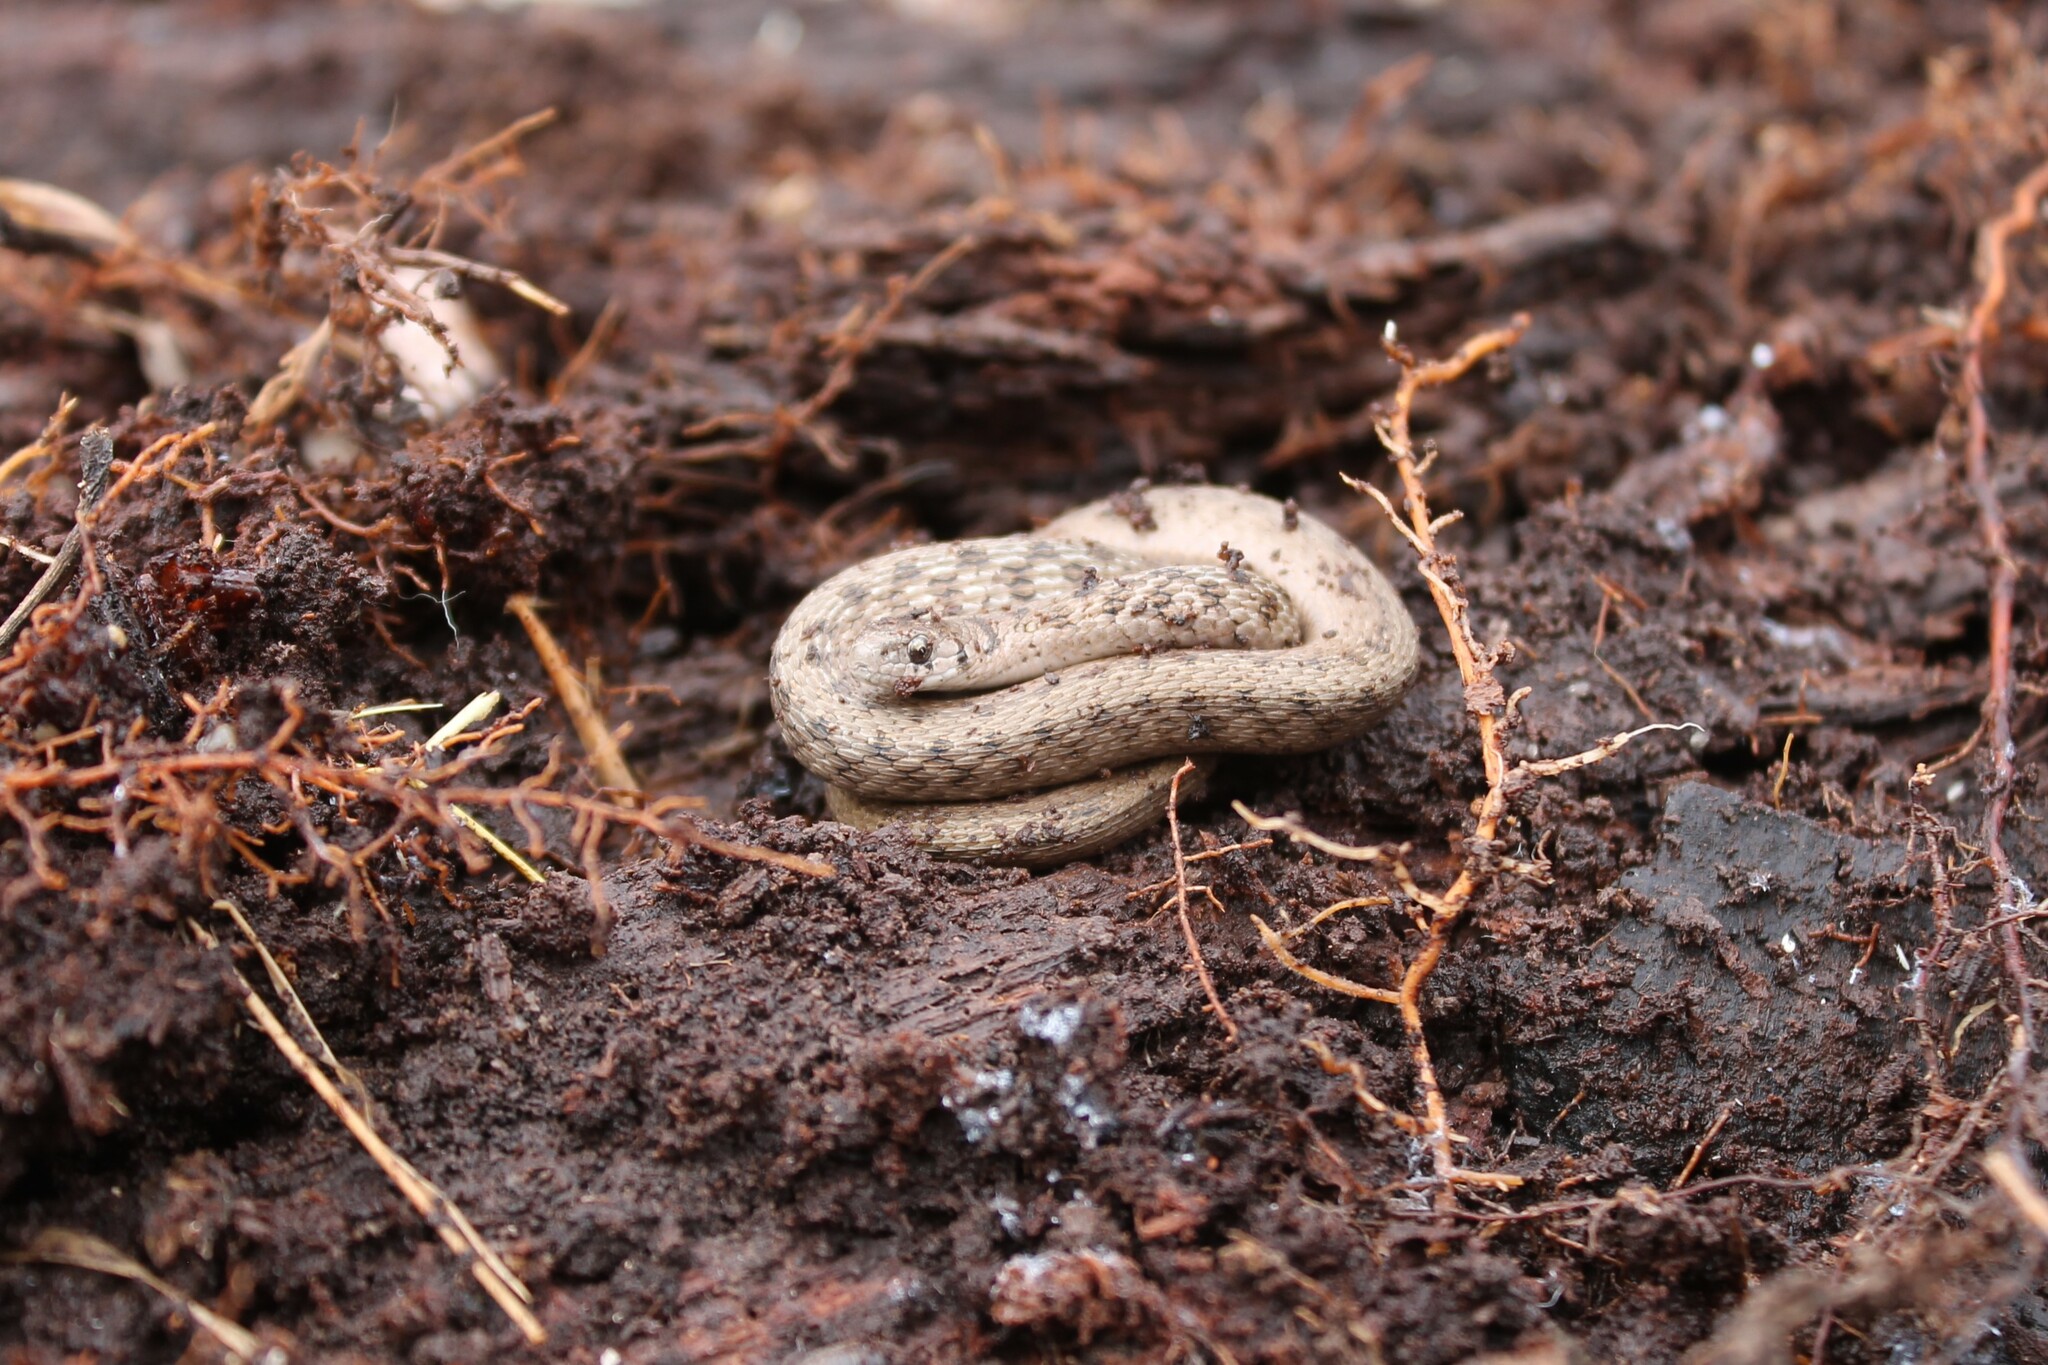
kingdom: Animalia
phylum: Chordata
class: Squamata
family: Colubridae
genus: Storeria
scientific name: Storeria dekayi
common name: (dekay’s) brown snake
